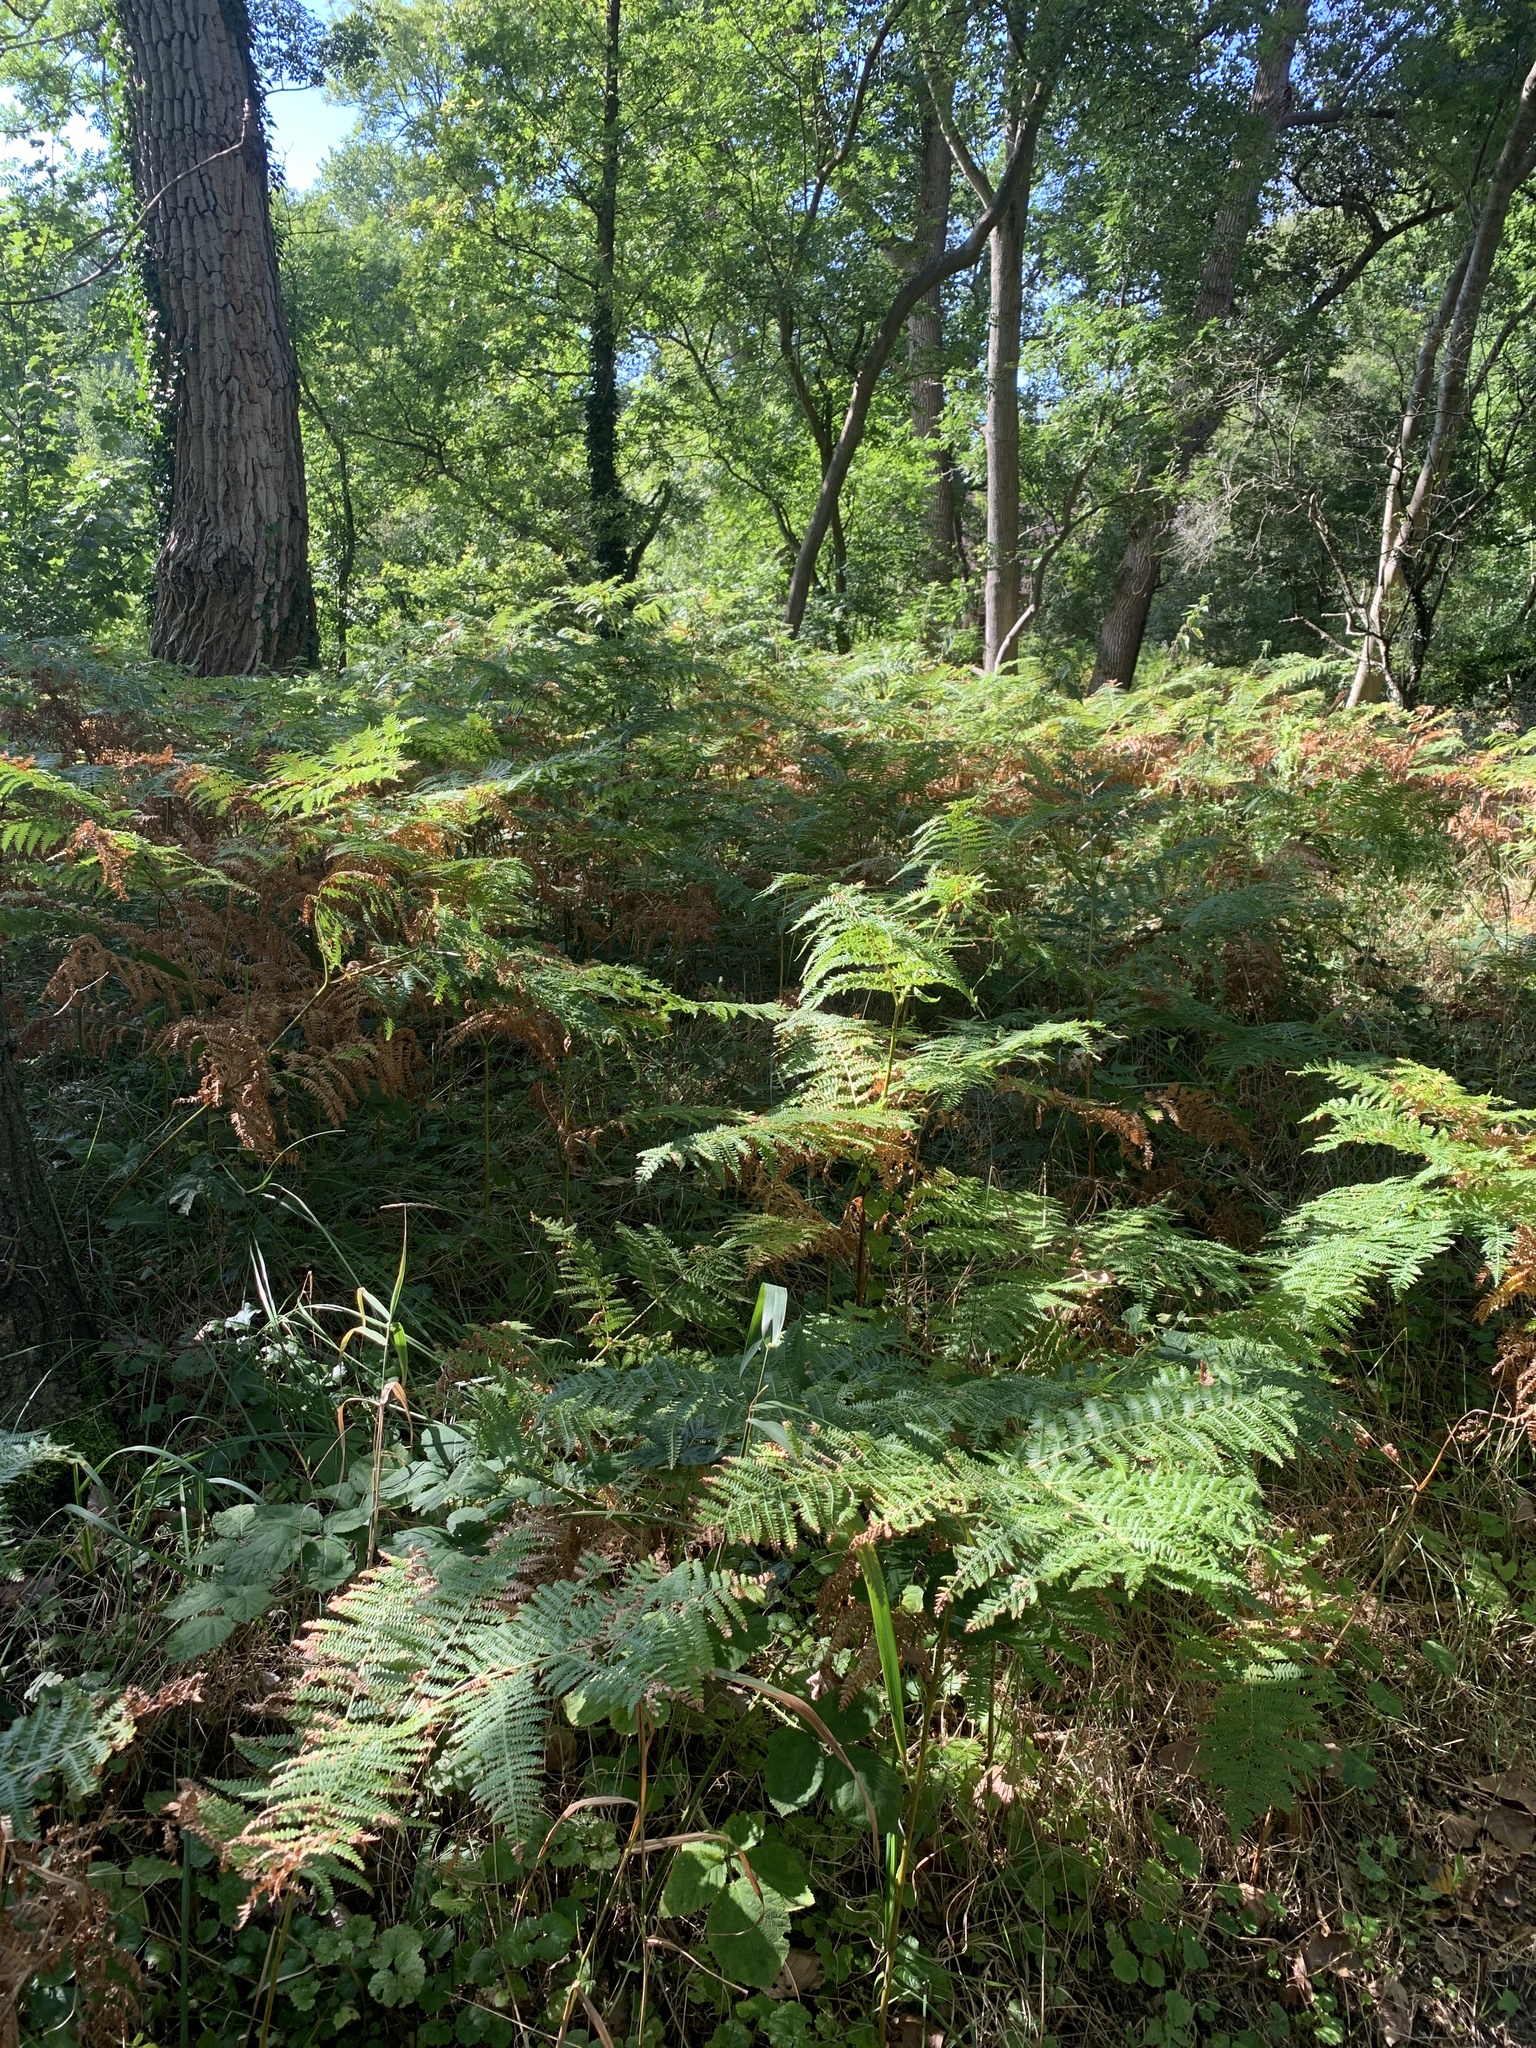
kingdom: Plantae
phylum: Tracheophyta
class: Polypodiopsida
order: Polypodiales
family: Dennstaedtiaceae
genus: Pteridium
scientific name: Pteridium aquilinum
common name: Bracken
